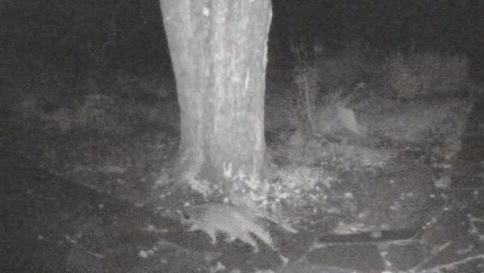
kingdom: Animalia
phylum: Chordata
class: Mammalia
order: Carnivora
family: Procyonidae
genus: Procyon
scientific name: Procyon lotor
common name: Raccoon
